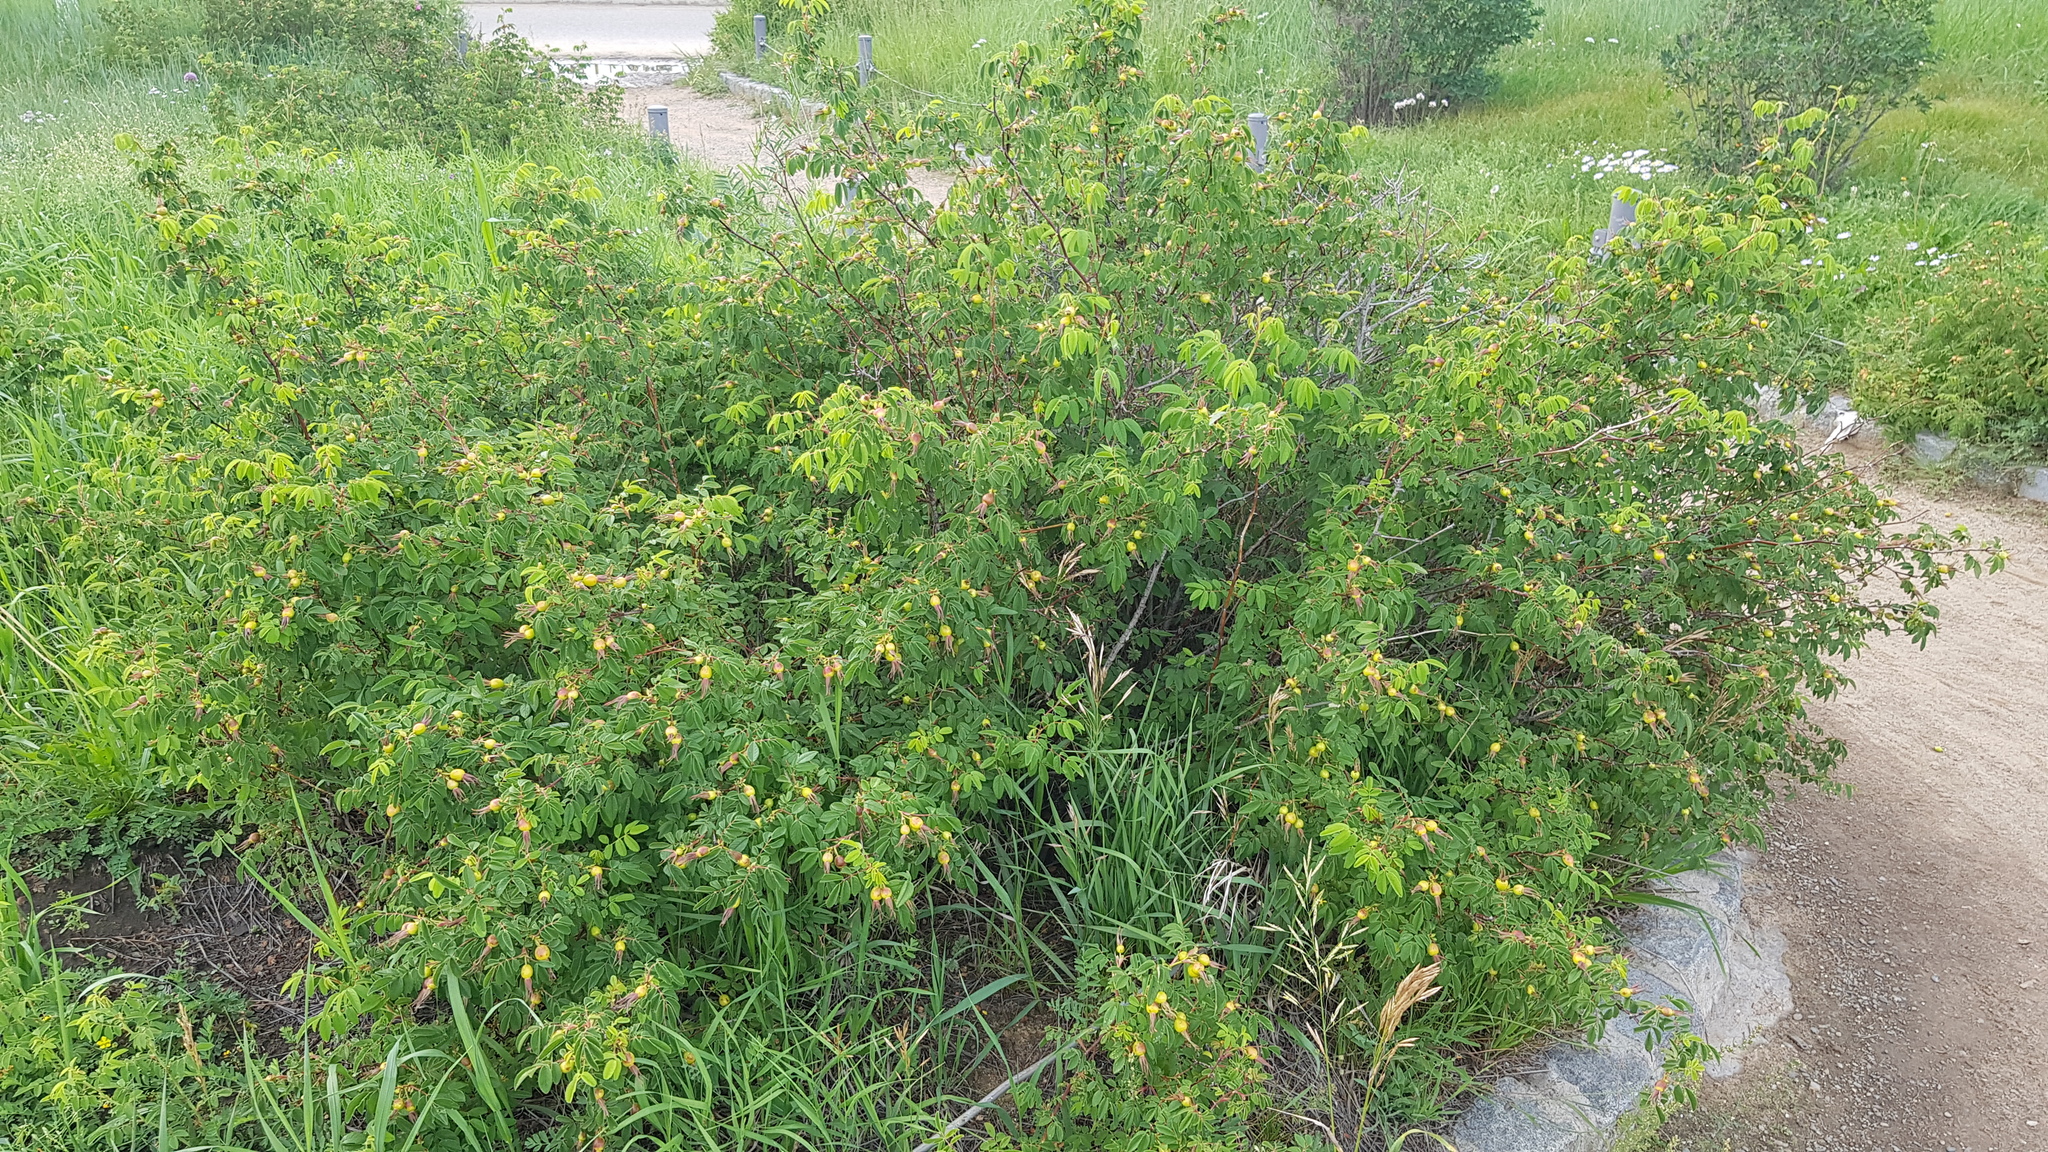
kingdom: Plantae
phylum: Tracheophyta
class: Magnoliopsida
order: Rosales
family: Rosaceae
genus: Rosa
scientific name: Rosa davurica
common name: Amur rose
